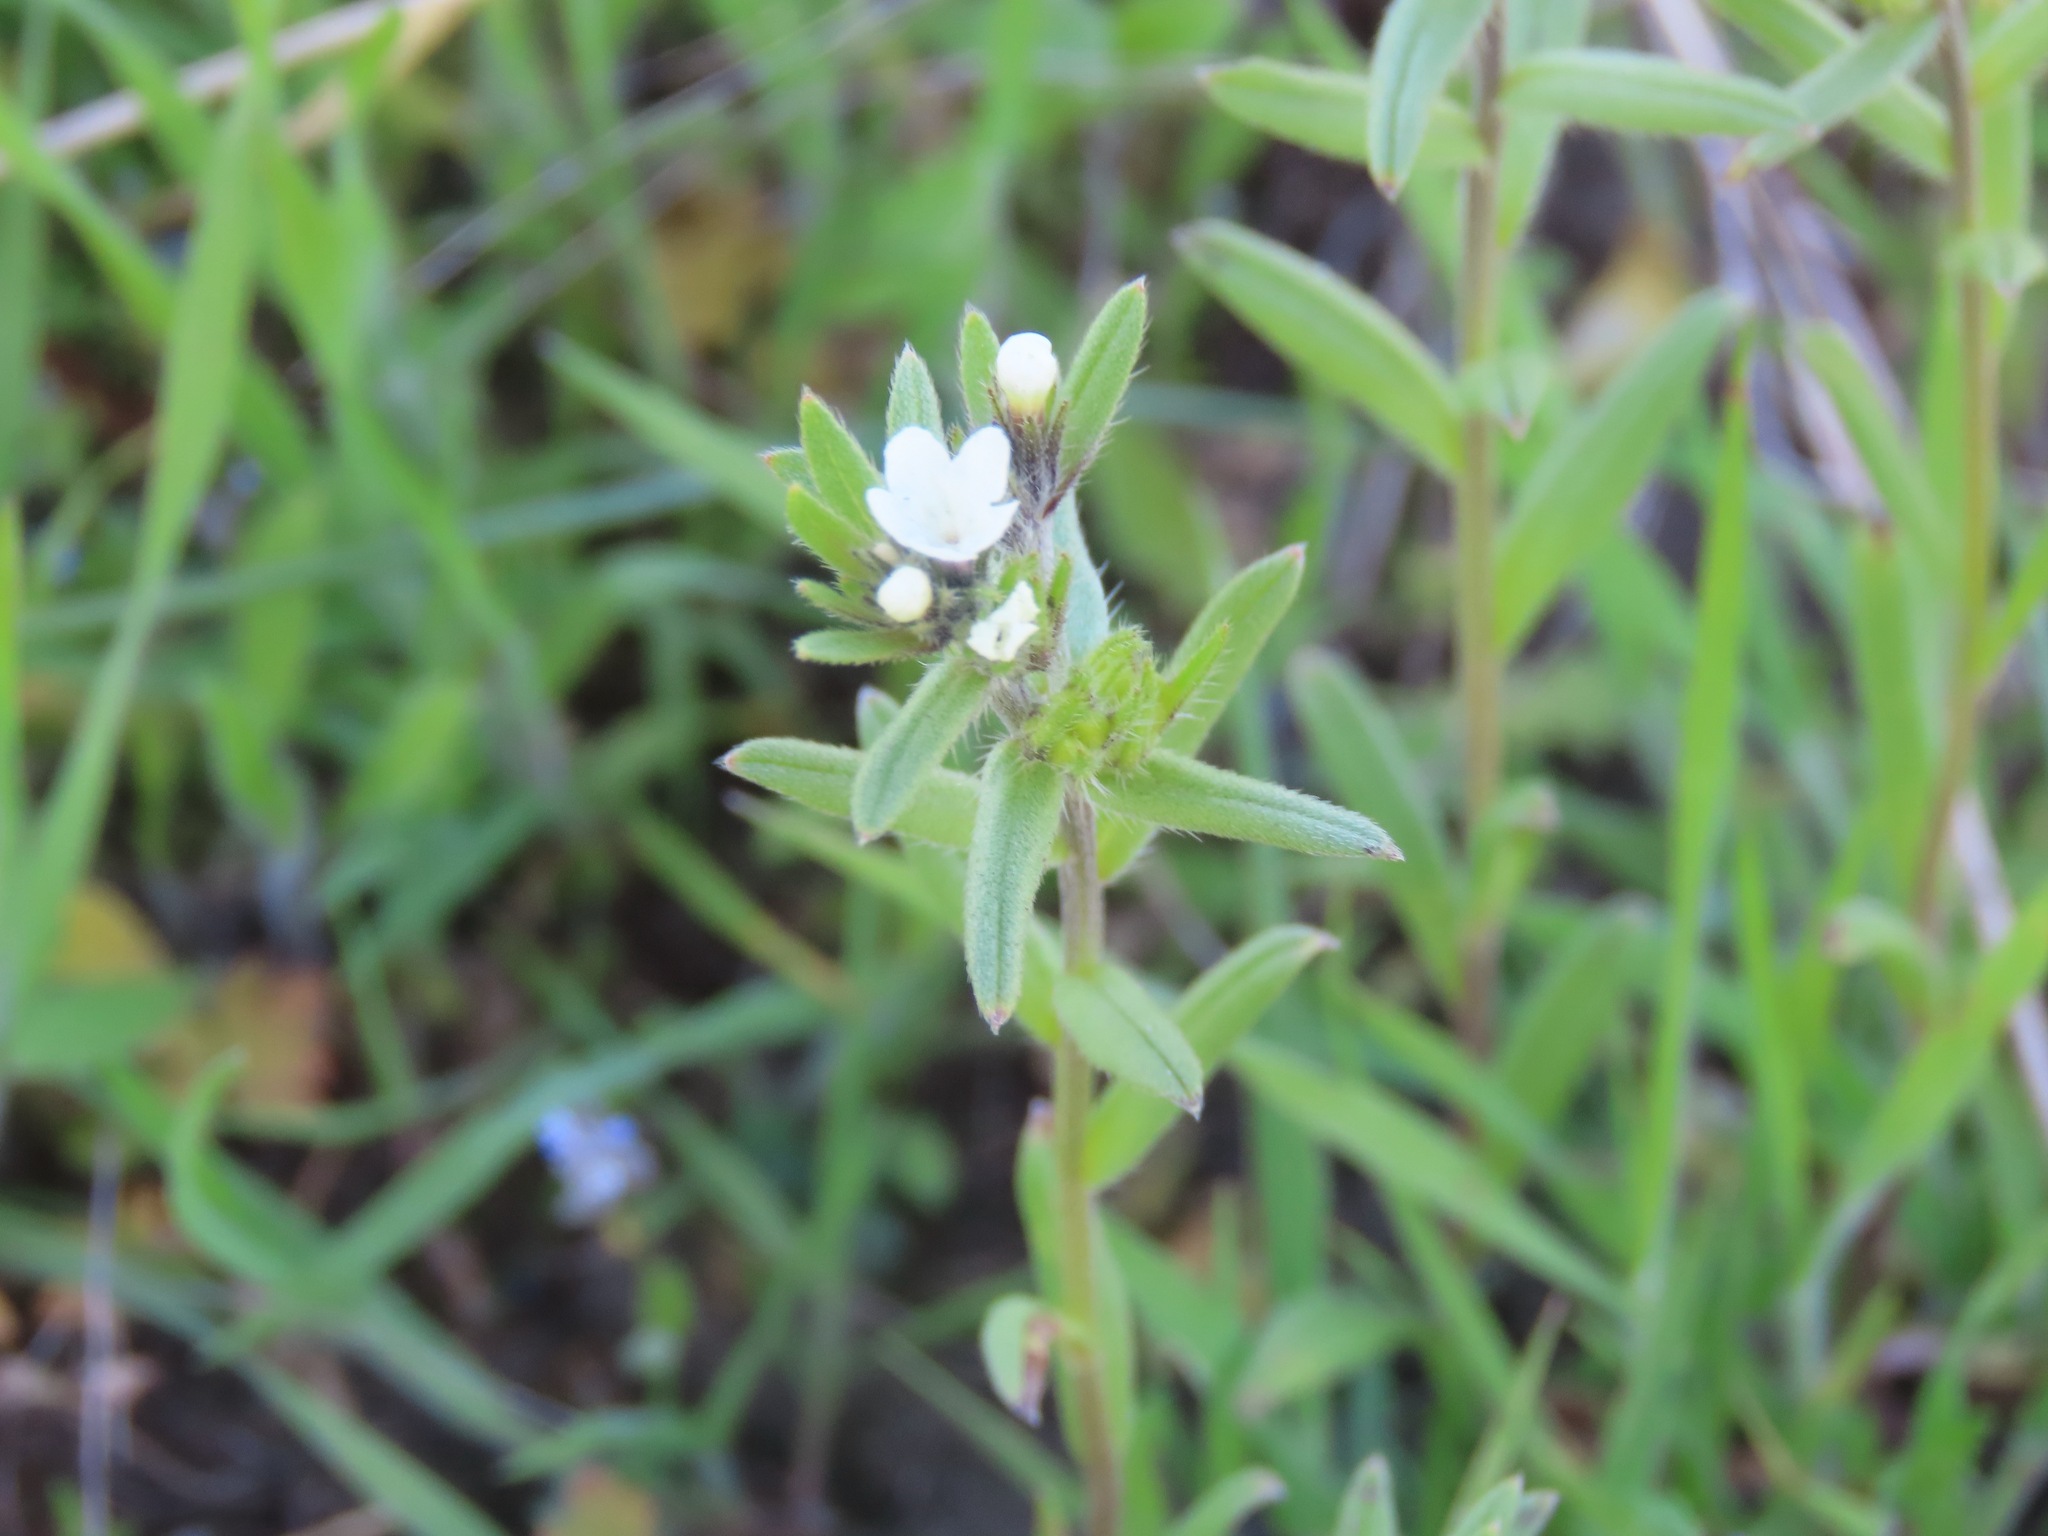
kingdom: Plantae
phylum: Tracheophyta
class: Magnoliopsida
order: Boraginales
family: Boraginaceae
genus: Buglossoides
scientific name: Buglossoides arvensis
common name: Corn gromwell
